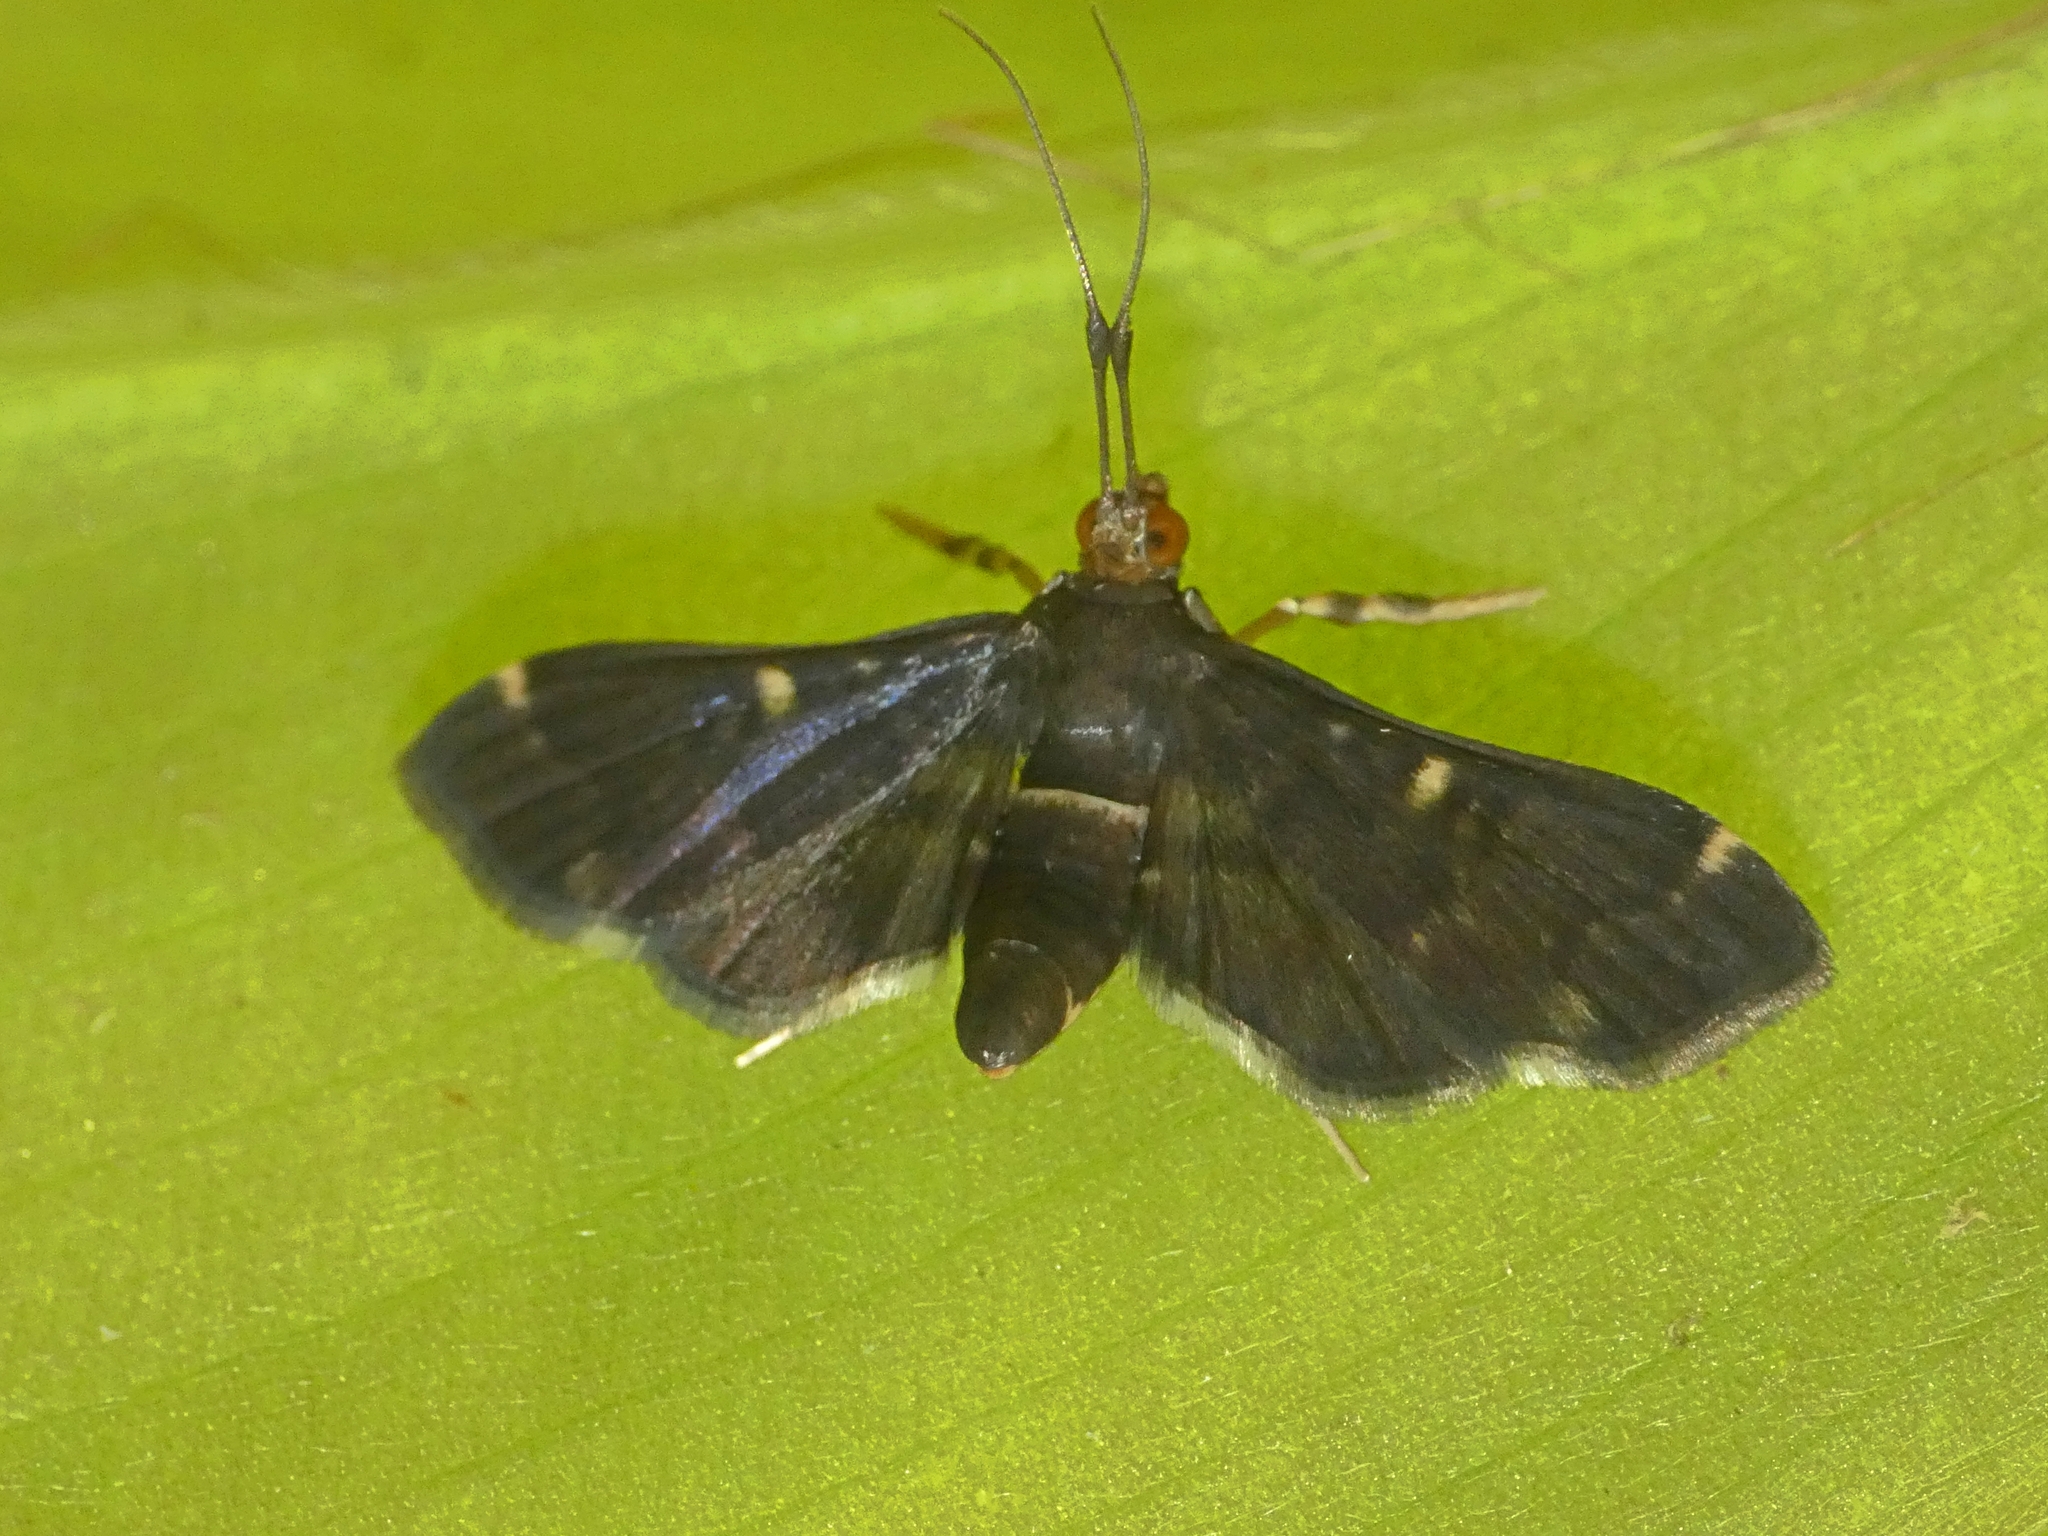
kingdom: Animalia
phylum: Arthropoda
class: Insecta
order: Lepidoptera
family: Crambidae
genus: Piletocera
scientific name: Piletocera chlorura
